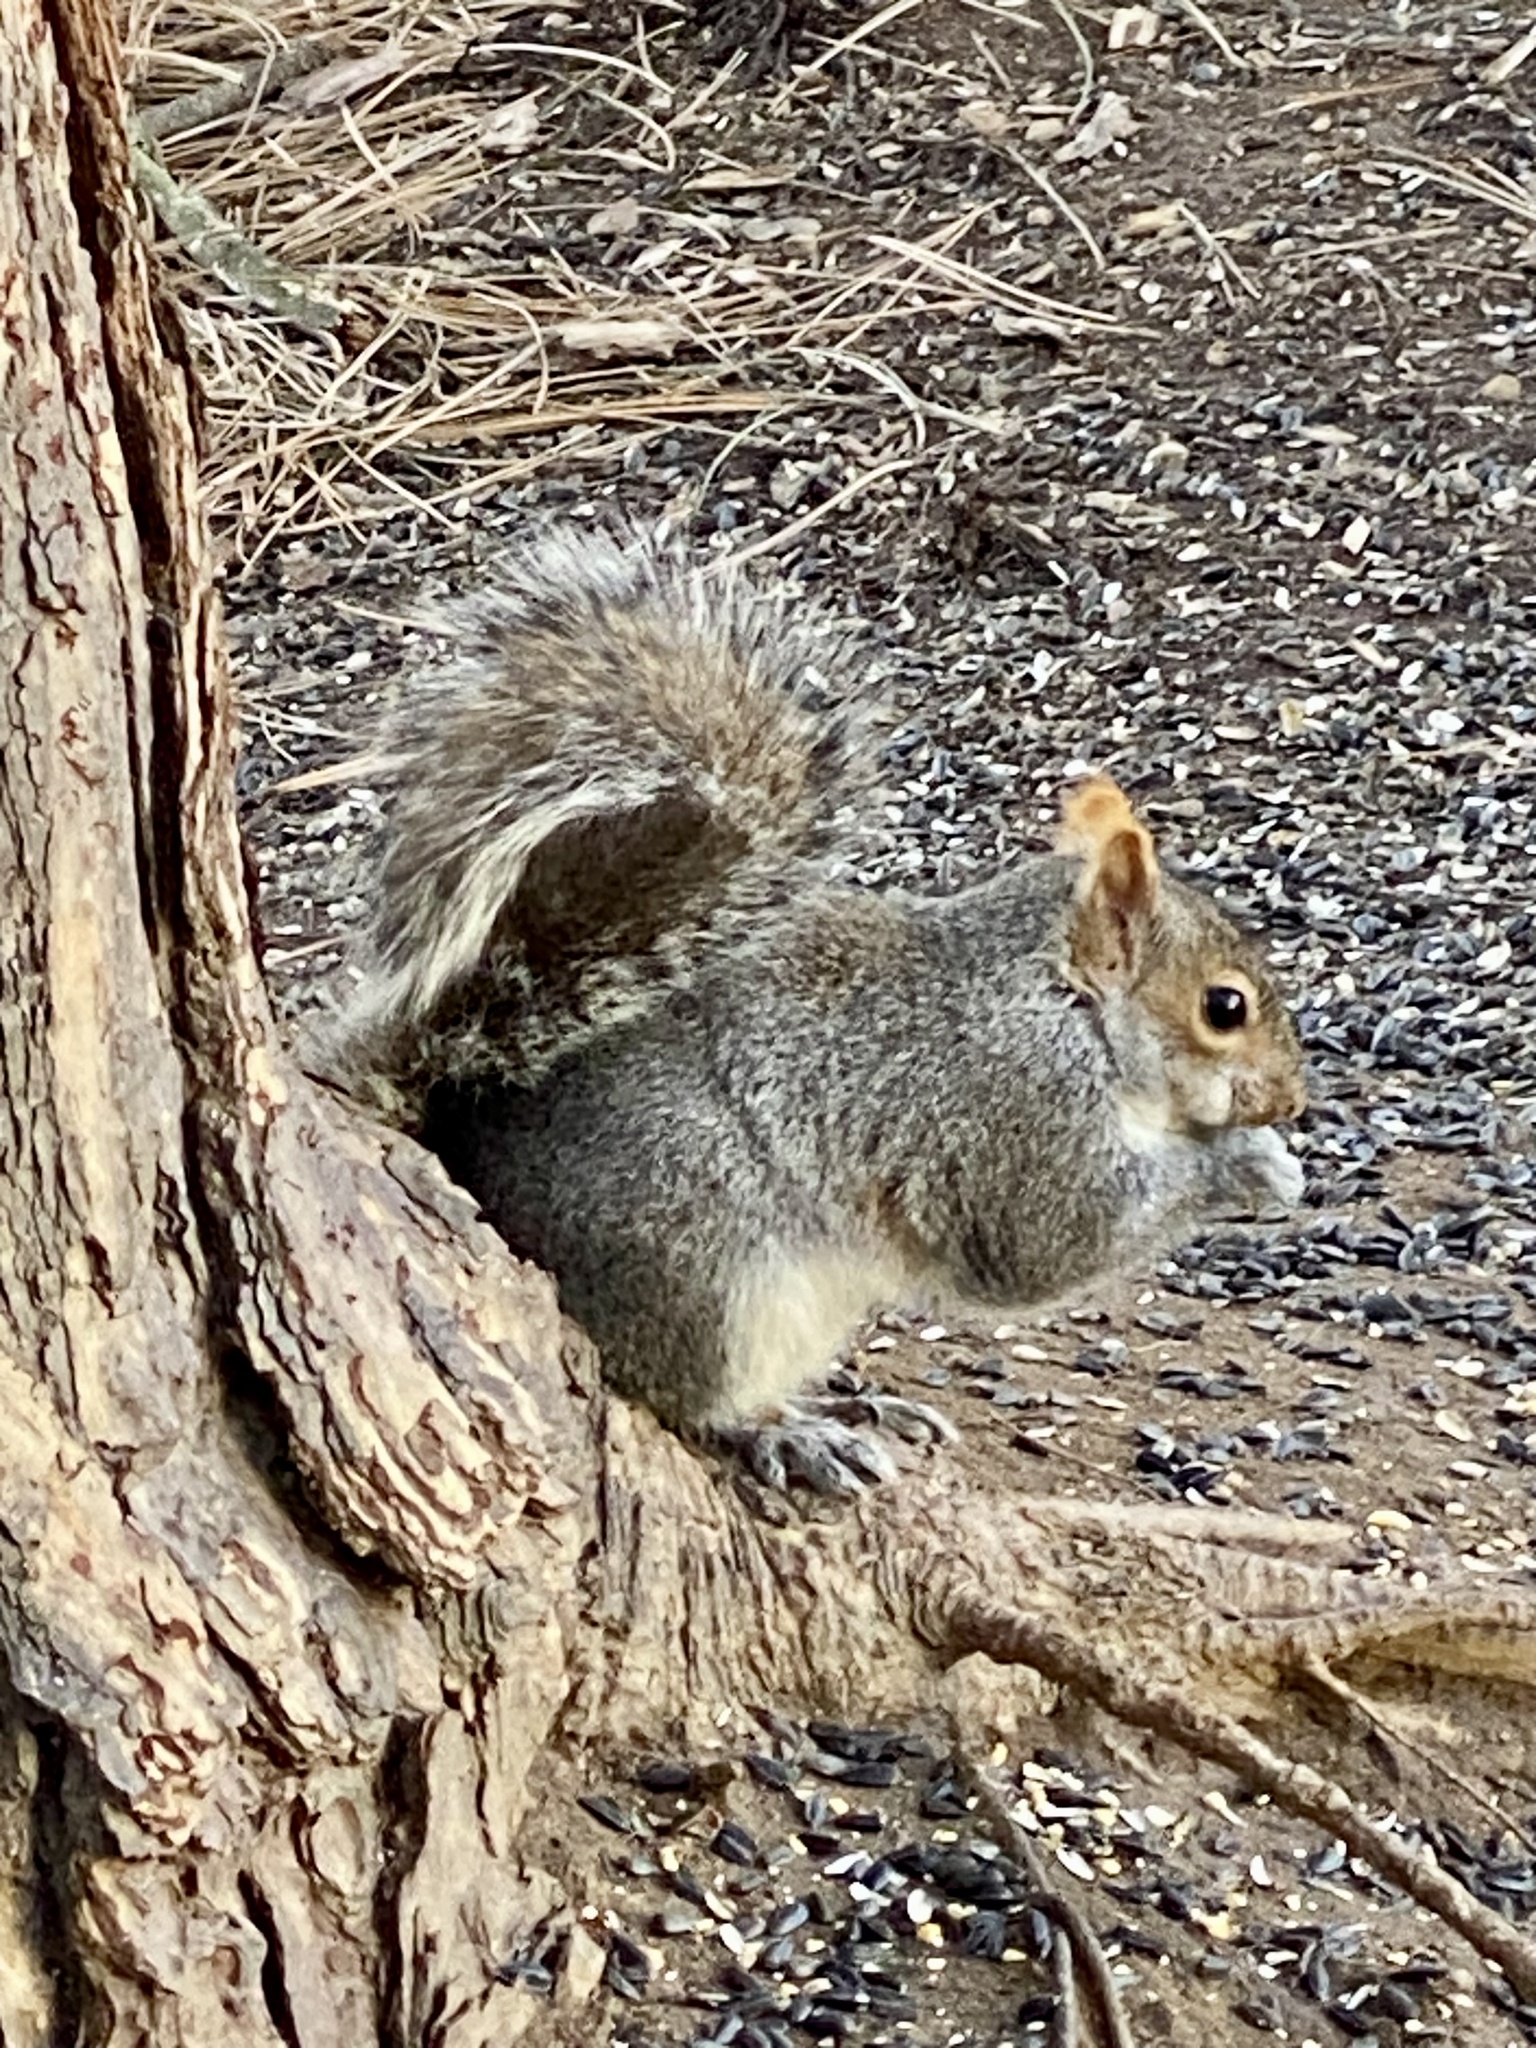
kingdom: Animalia
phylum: Chordata
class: Mammalia
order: Rodentia
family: Sciuridae
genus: Sciurus
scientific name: Sciurus carolinensis
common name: Eastern gray squirrel
